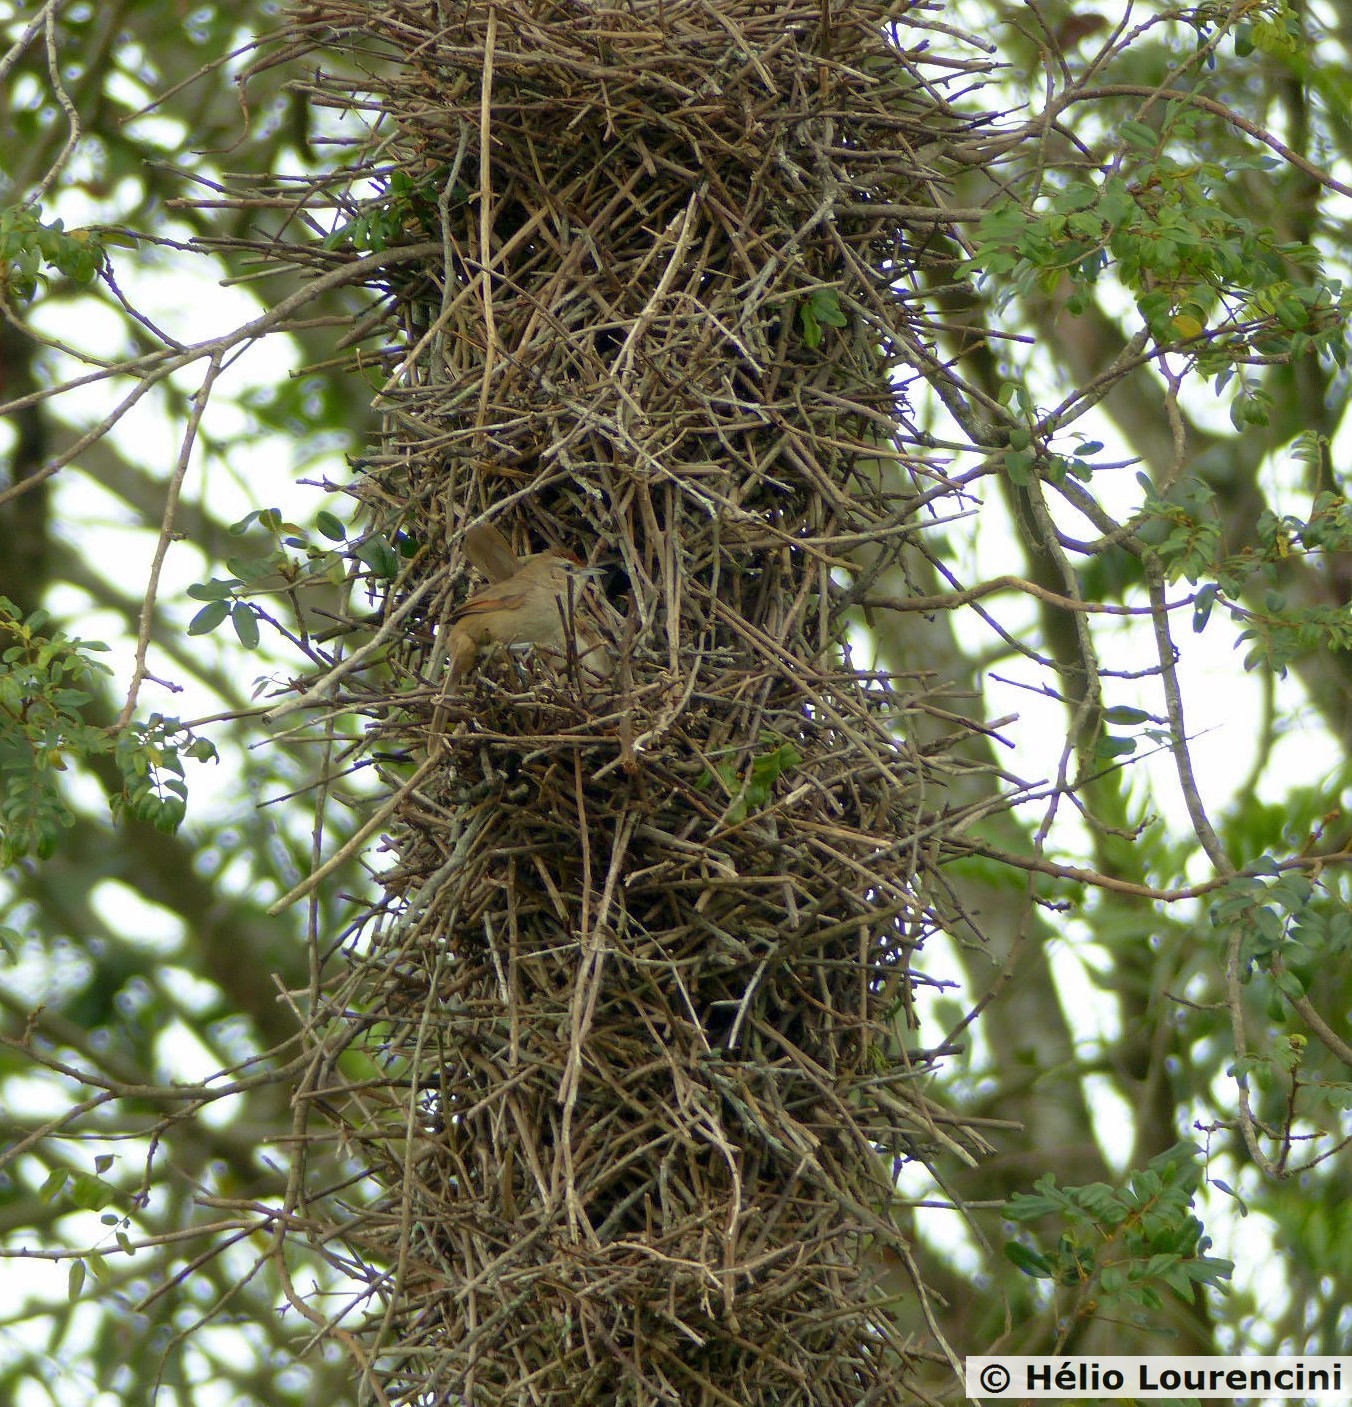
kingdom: Animalia
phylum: Chordata
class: Aves
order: Passeriformes
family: Furnariidae
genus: Phacellodomus
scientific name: Phacellodomus rufifrons
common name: Rufous-fronted thornbird
